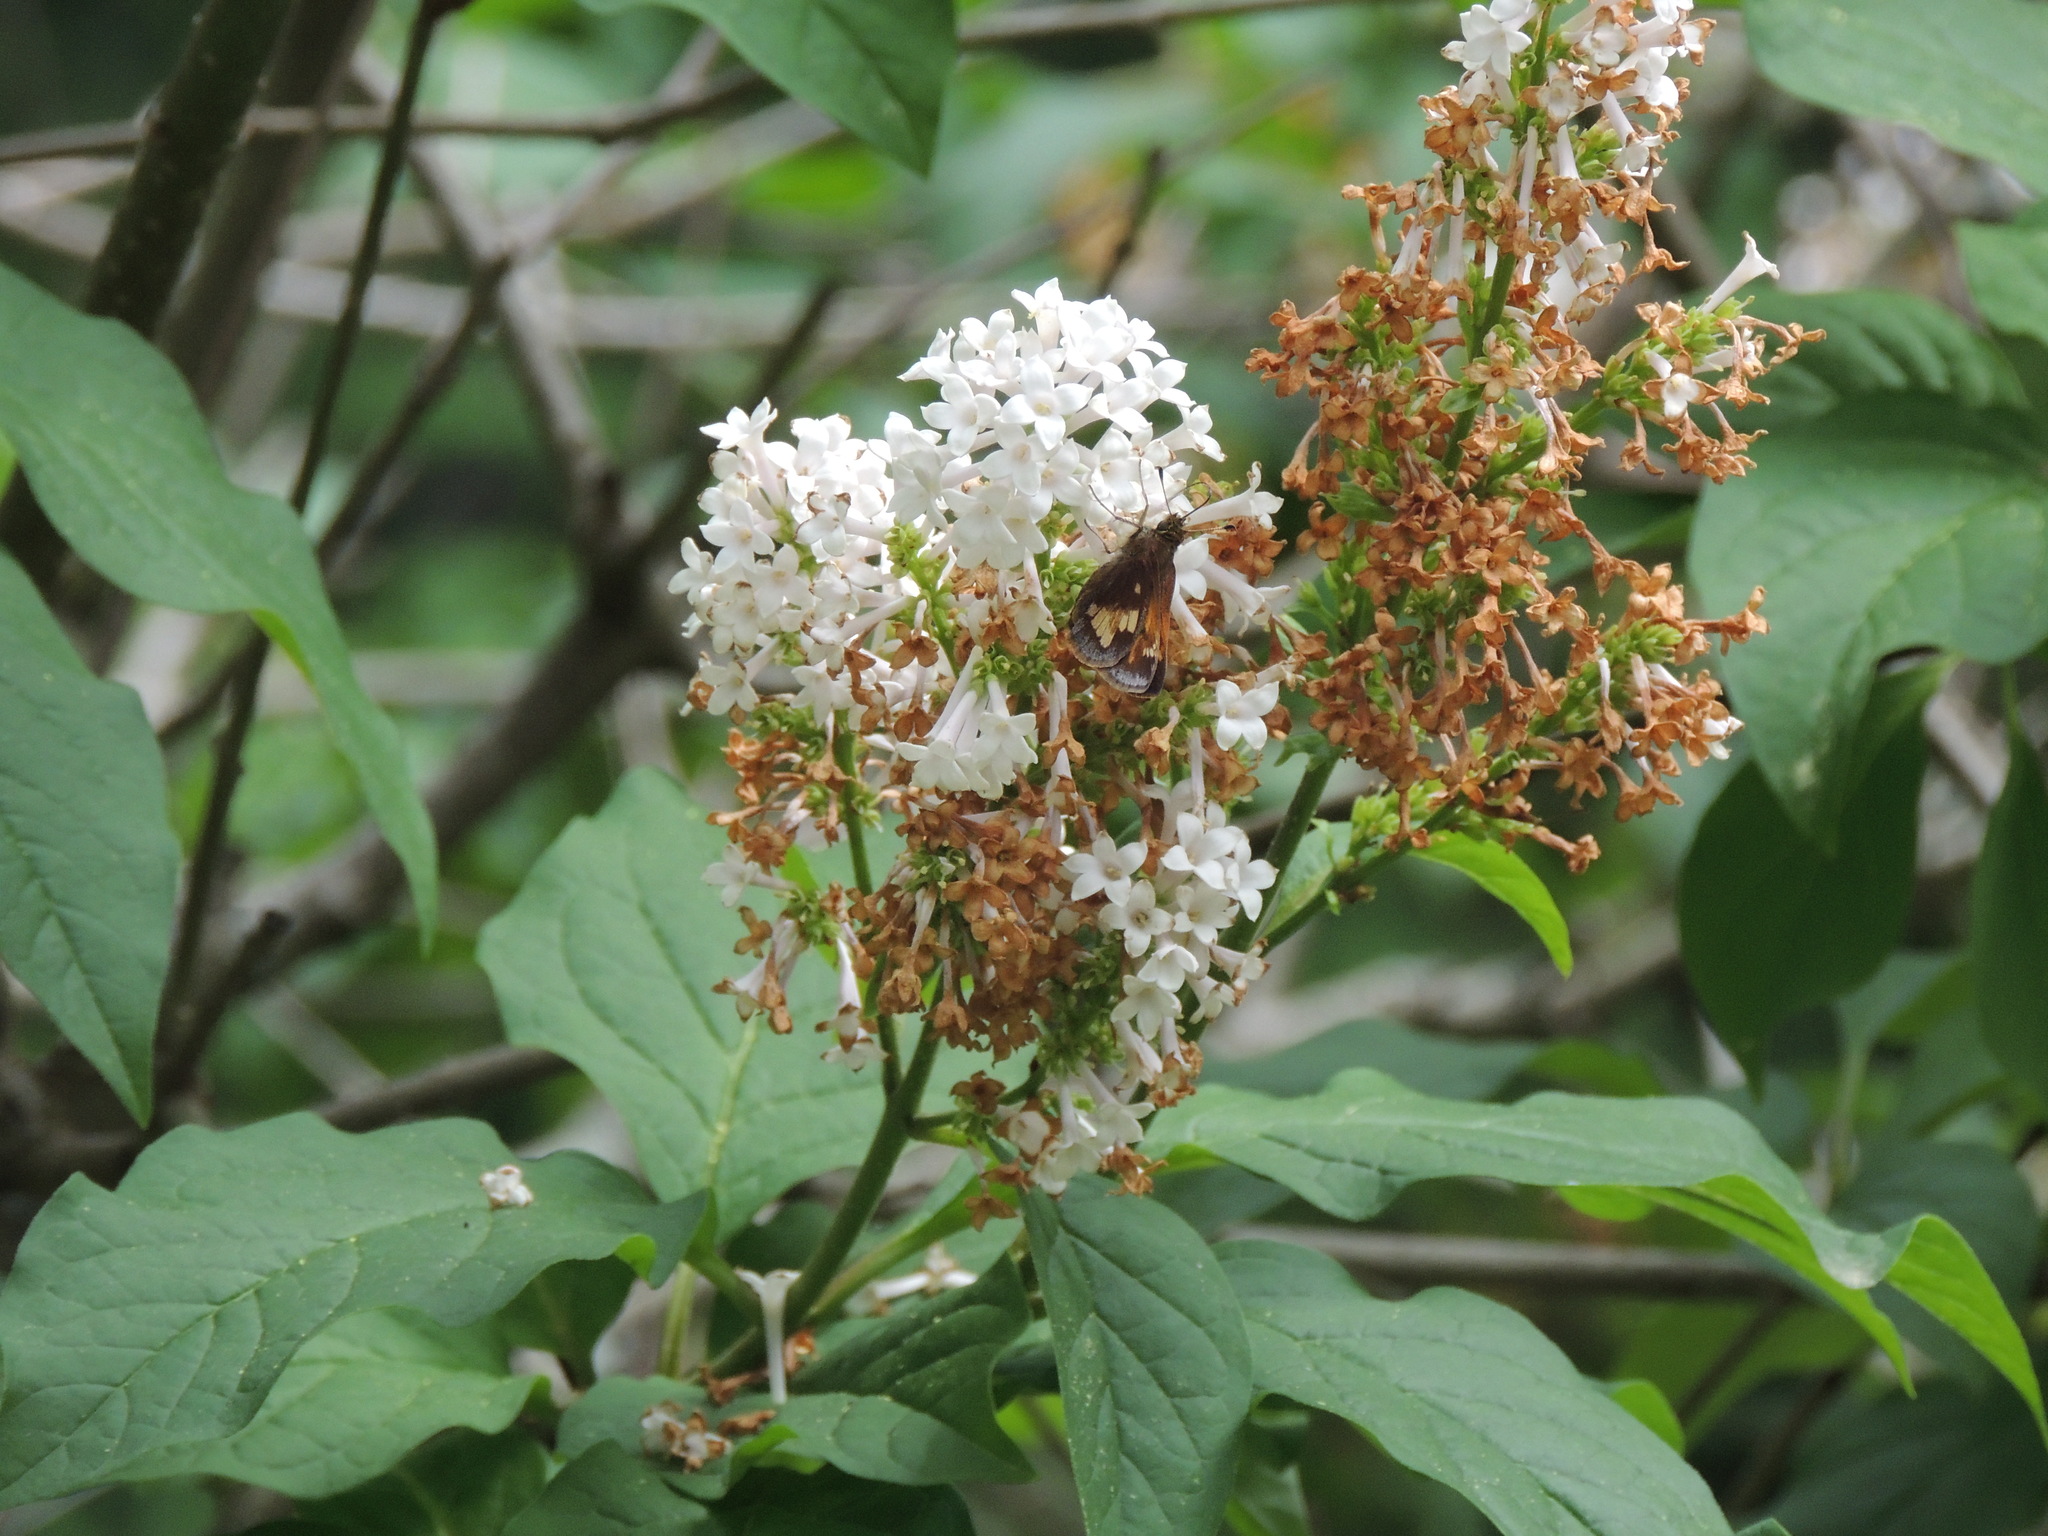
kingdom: Animalia
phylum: Arthropoda
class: Insecta
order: Lepidoptera
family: Hesperiidae
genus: Lon
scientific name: Lon hobomok
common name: Hobomok skipper
